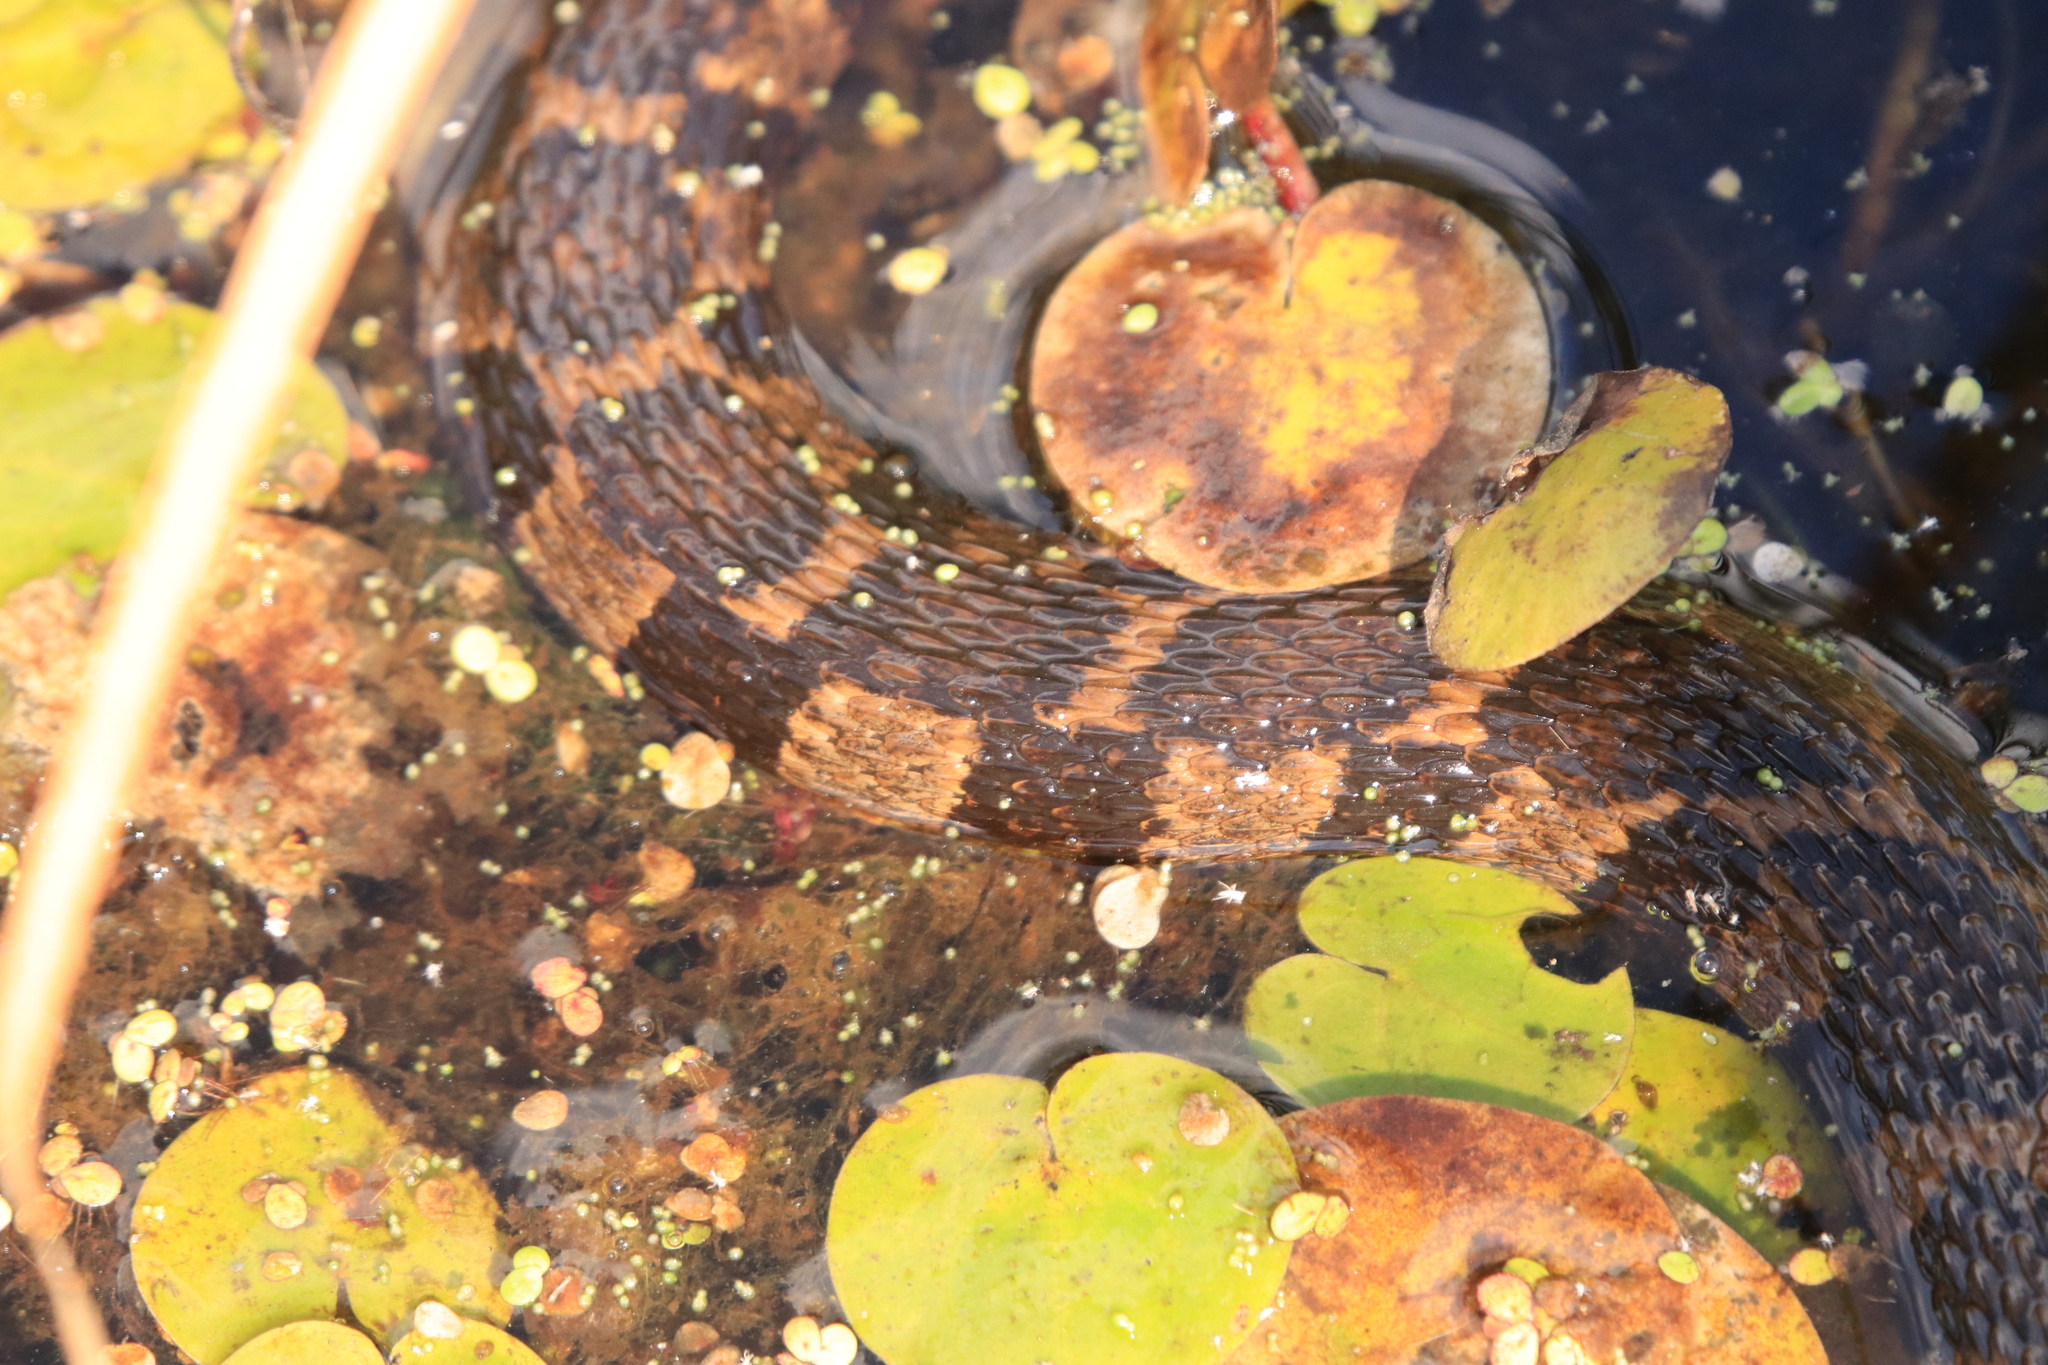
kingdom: Animalia
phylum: Chordata
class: Squamata
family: Colubridae
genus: Nerodia
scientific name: Nerodia sipedon
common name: Northern water snake
